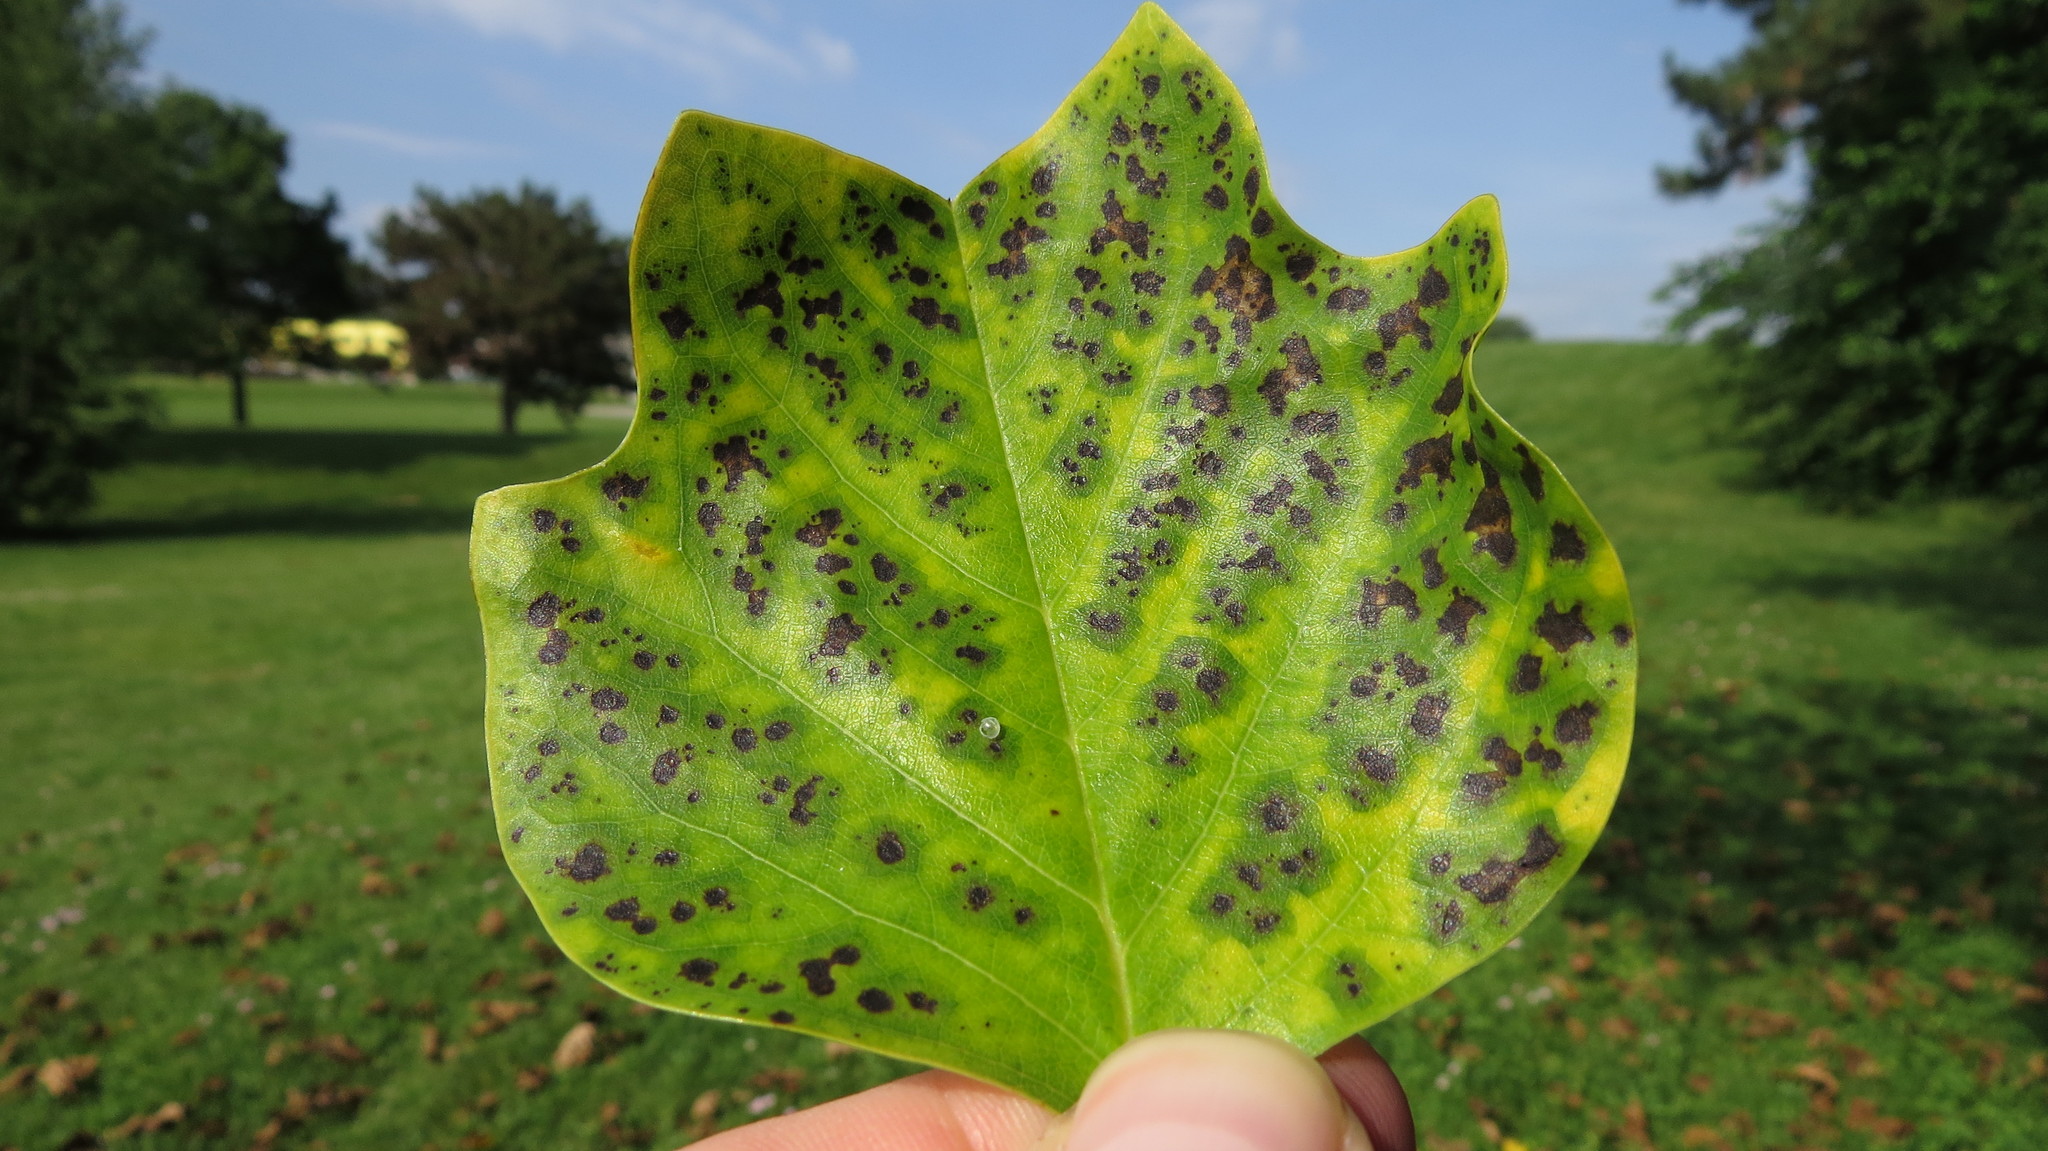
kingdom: Plantae
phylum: Tracheophyta
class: Magnoliopsida
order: Magnoliales
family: Magnoliaceae
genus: Liriodendron
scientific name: Liriodendron tulipifera
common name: Tulip tree
